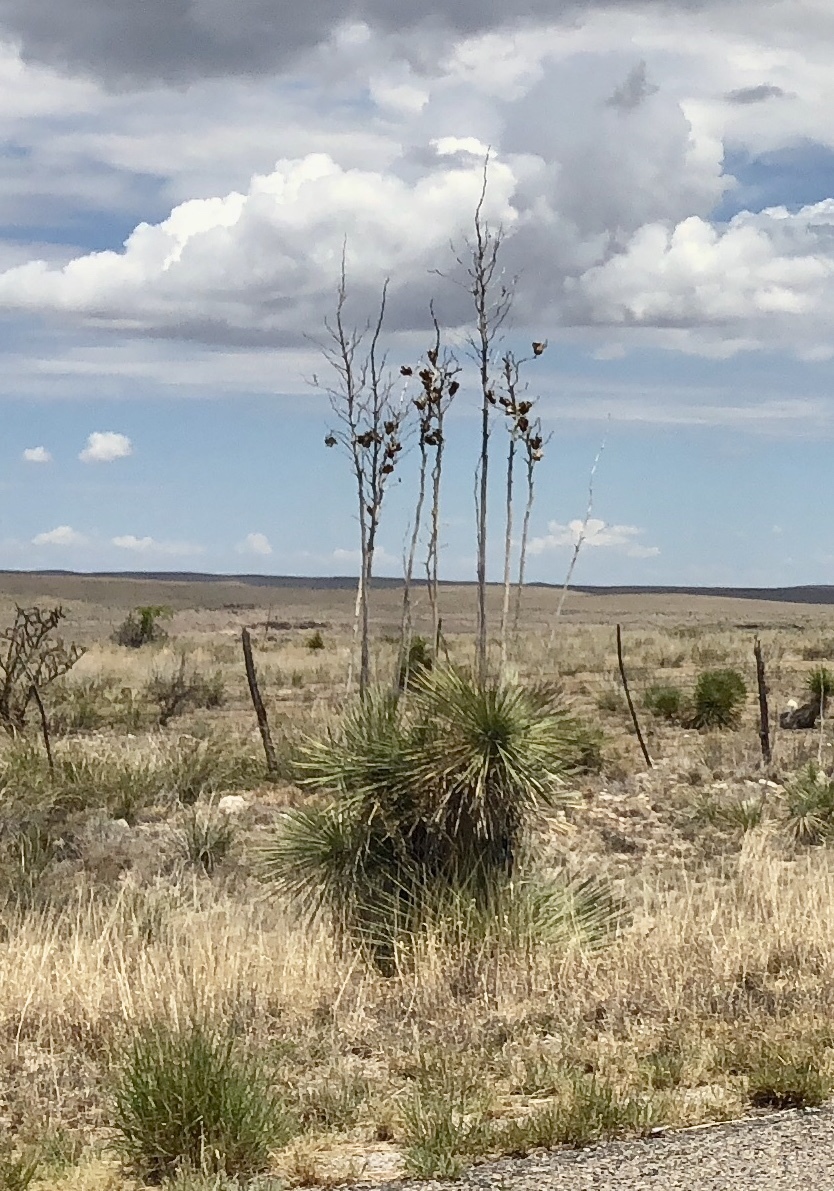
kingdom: Plantae
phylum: Tracheophyta
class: Liliopsida
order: Asparagales
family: Asparagaceae
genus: Yucca
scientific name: Yucca elata
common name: Palmella
